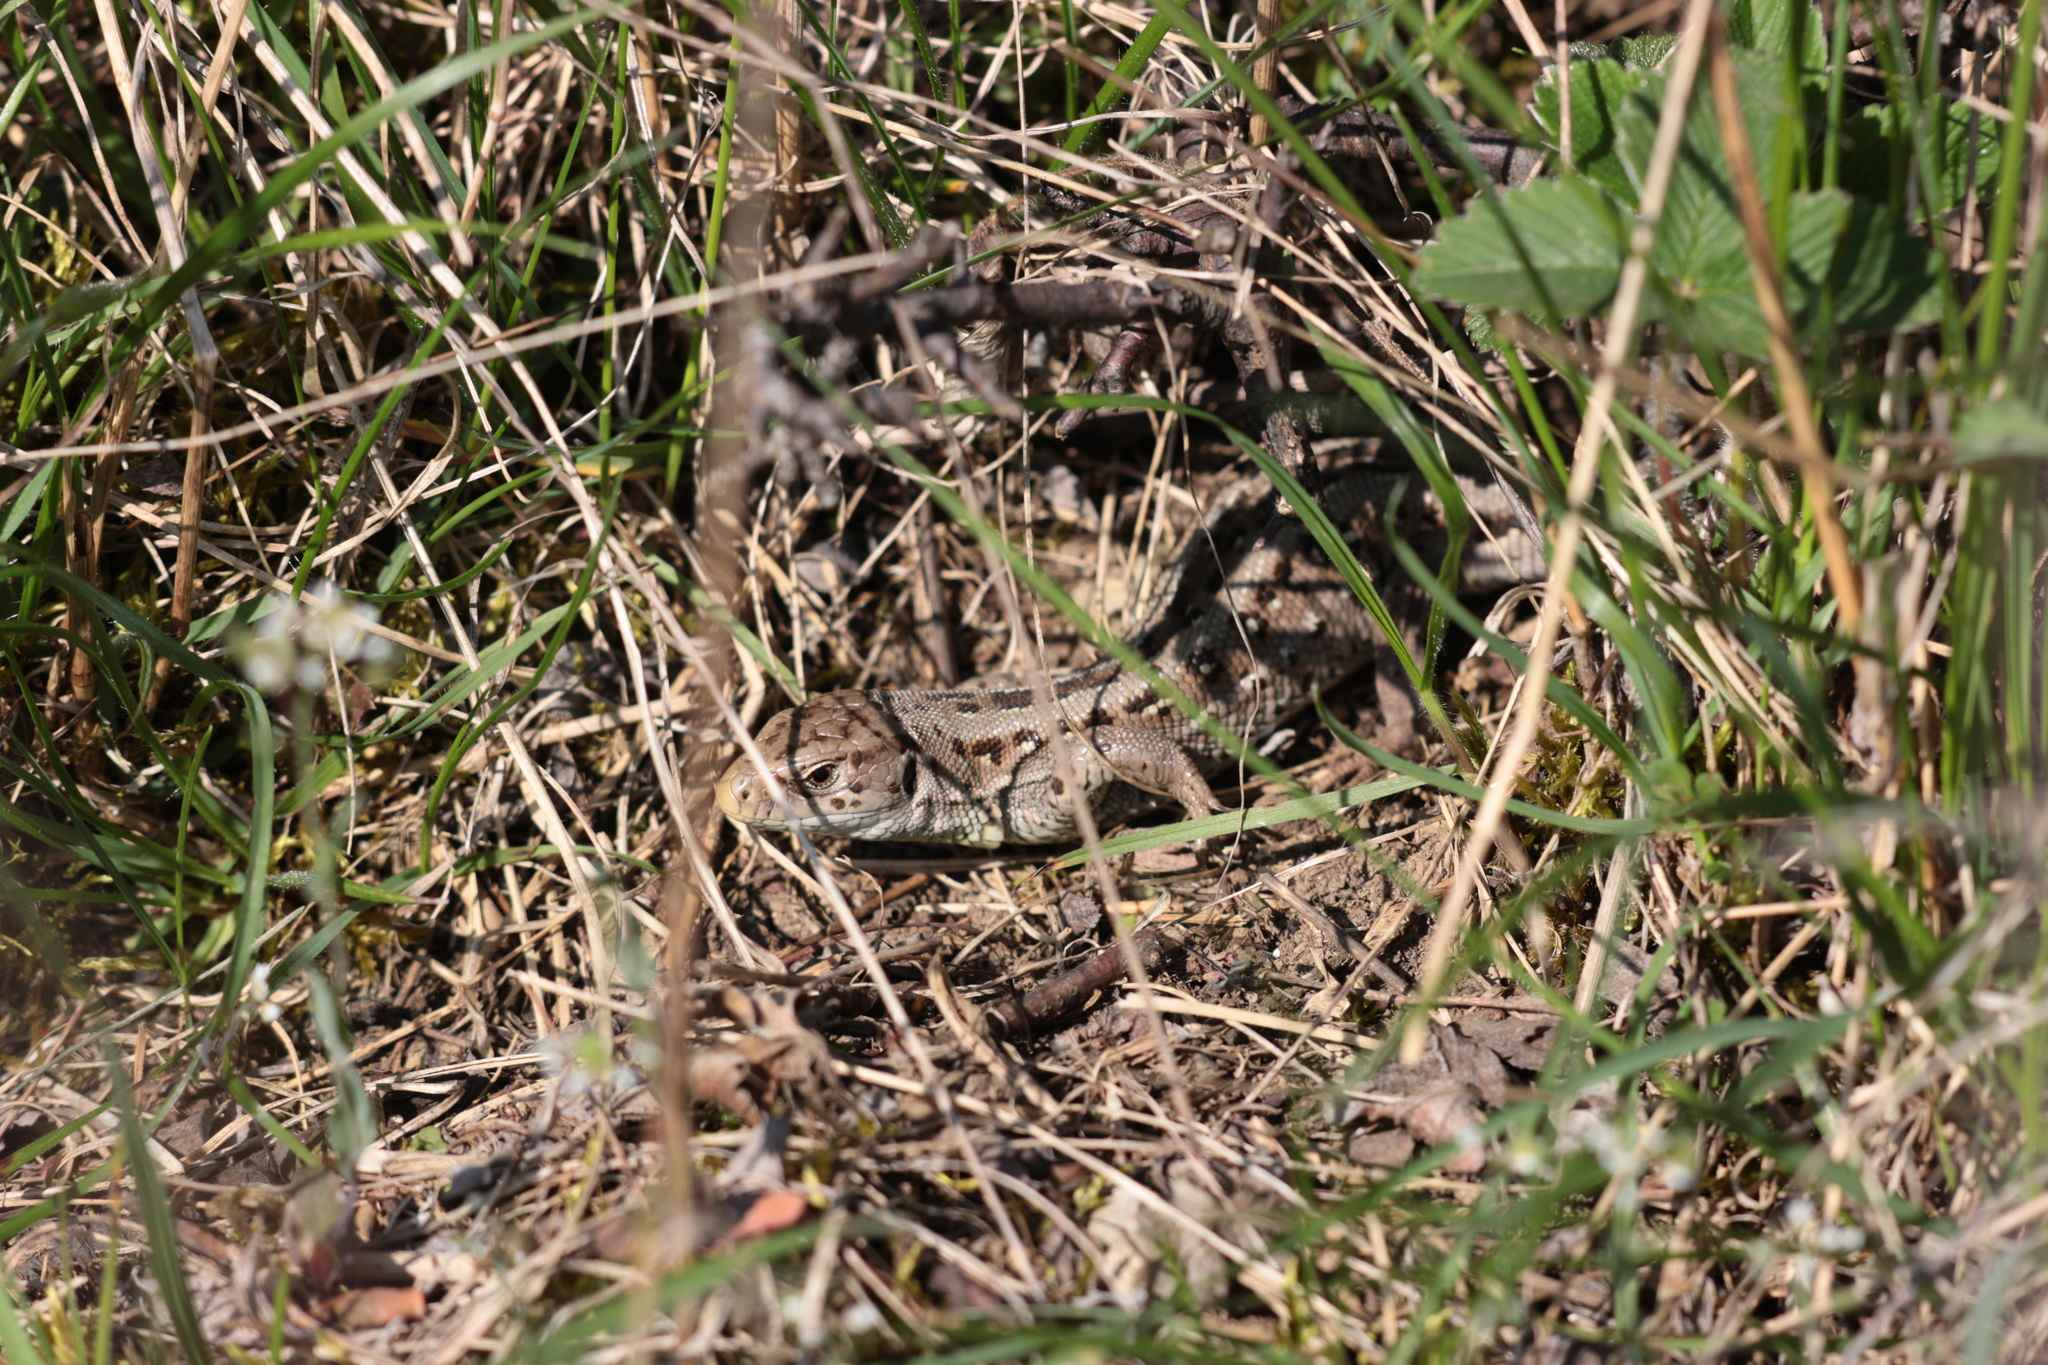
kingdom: Animalia
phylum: Chordata
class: Squamata
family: Lacertidae
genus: Lacerta
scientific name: Lacerta agilis
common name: Sand lizard
